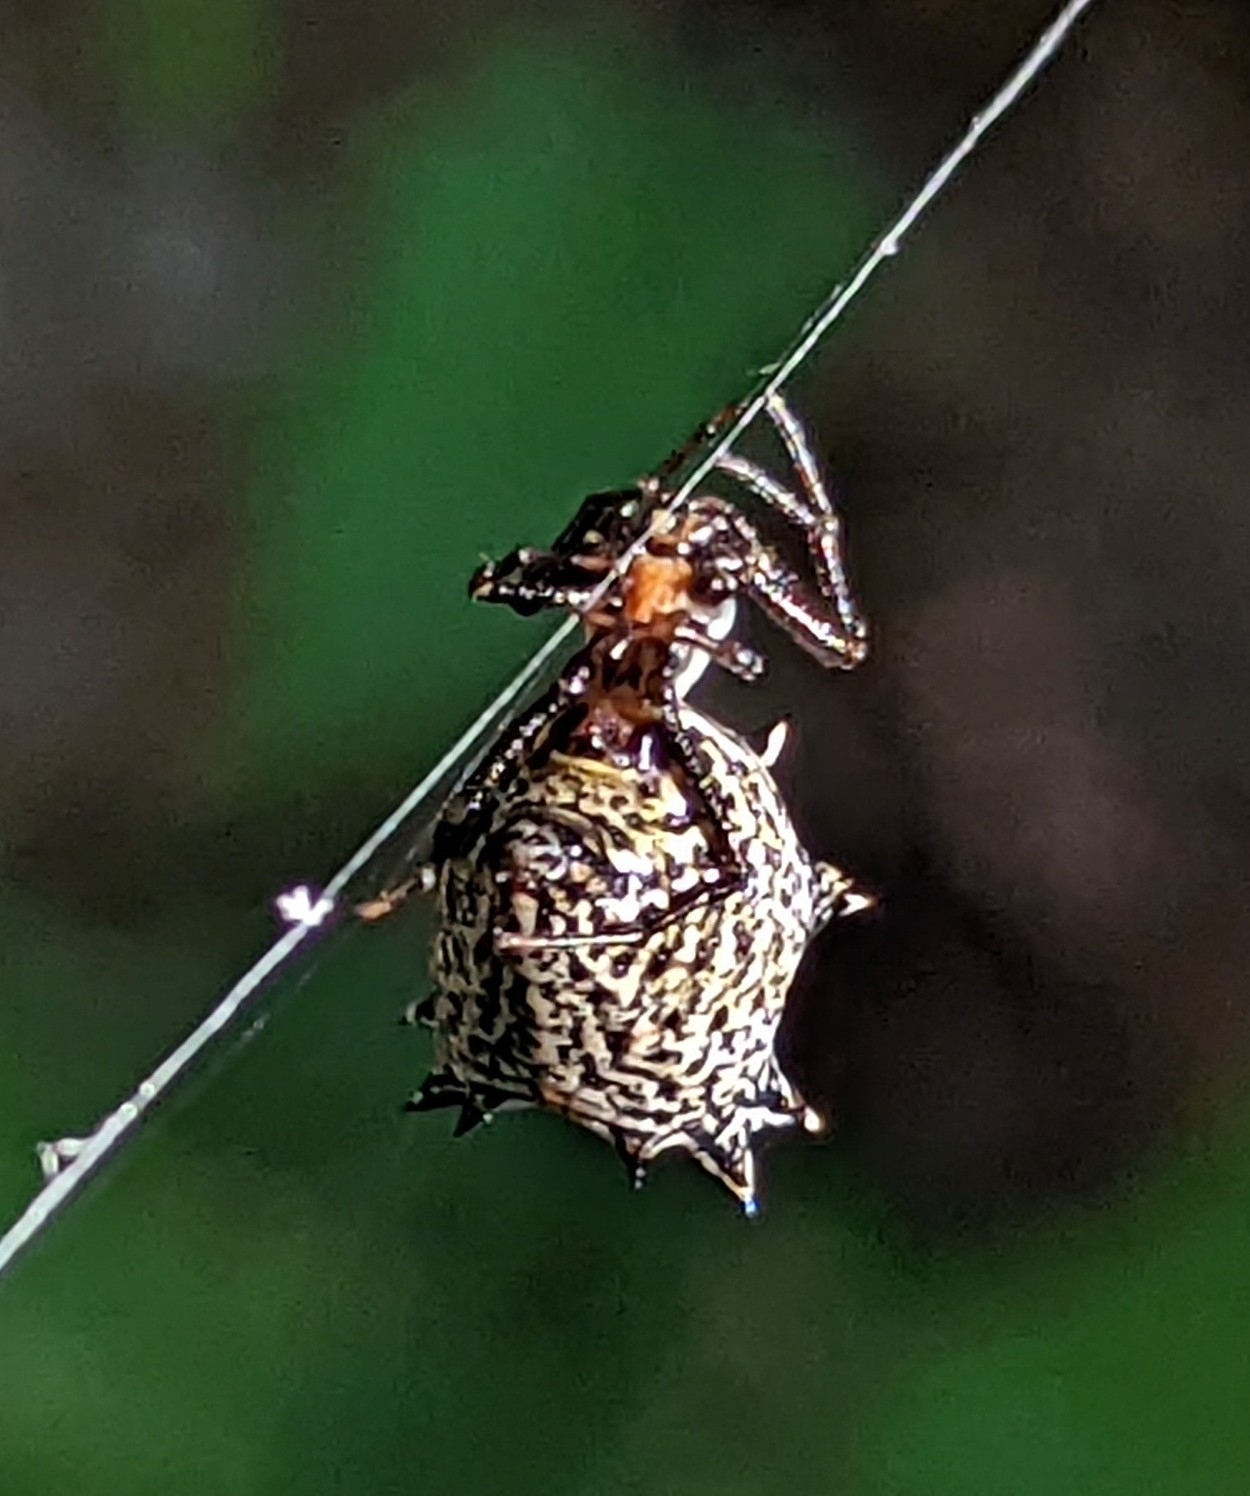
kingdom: Animalia
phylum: Arthropoda
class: Arachnida
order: Araneae
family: Araneidae
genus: Micrathena
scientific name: Micrathena gracilis
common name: Orb weavers
